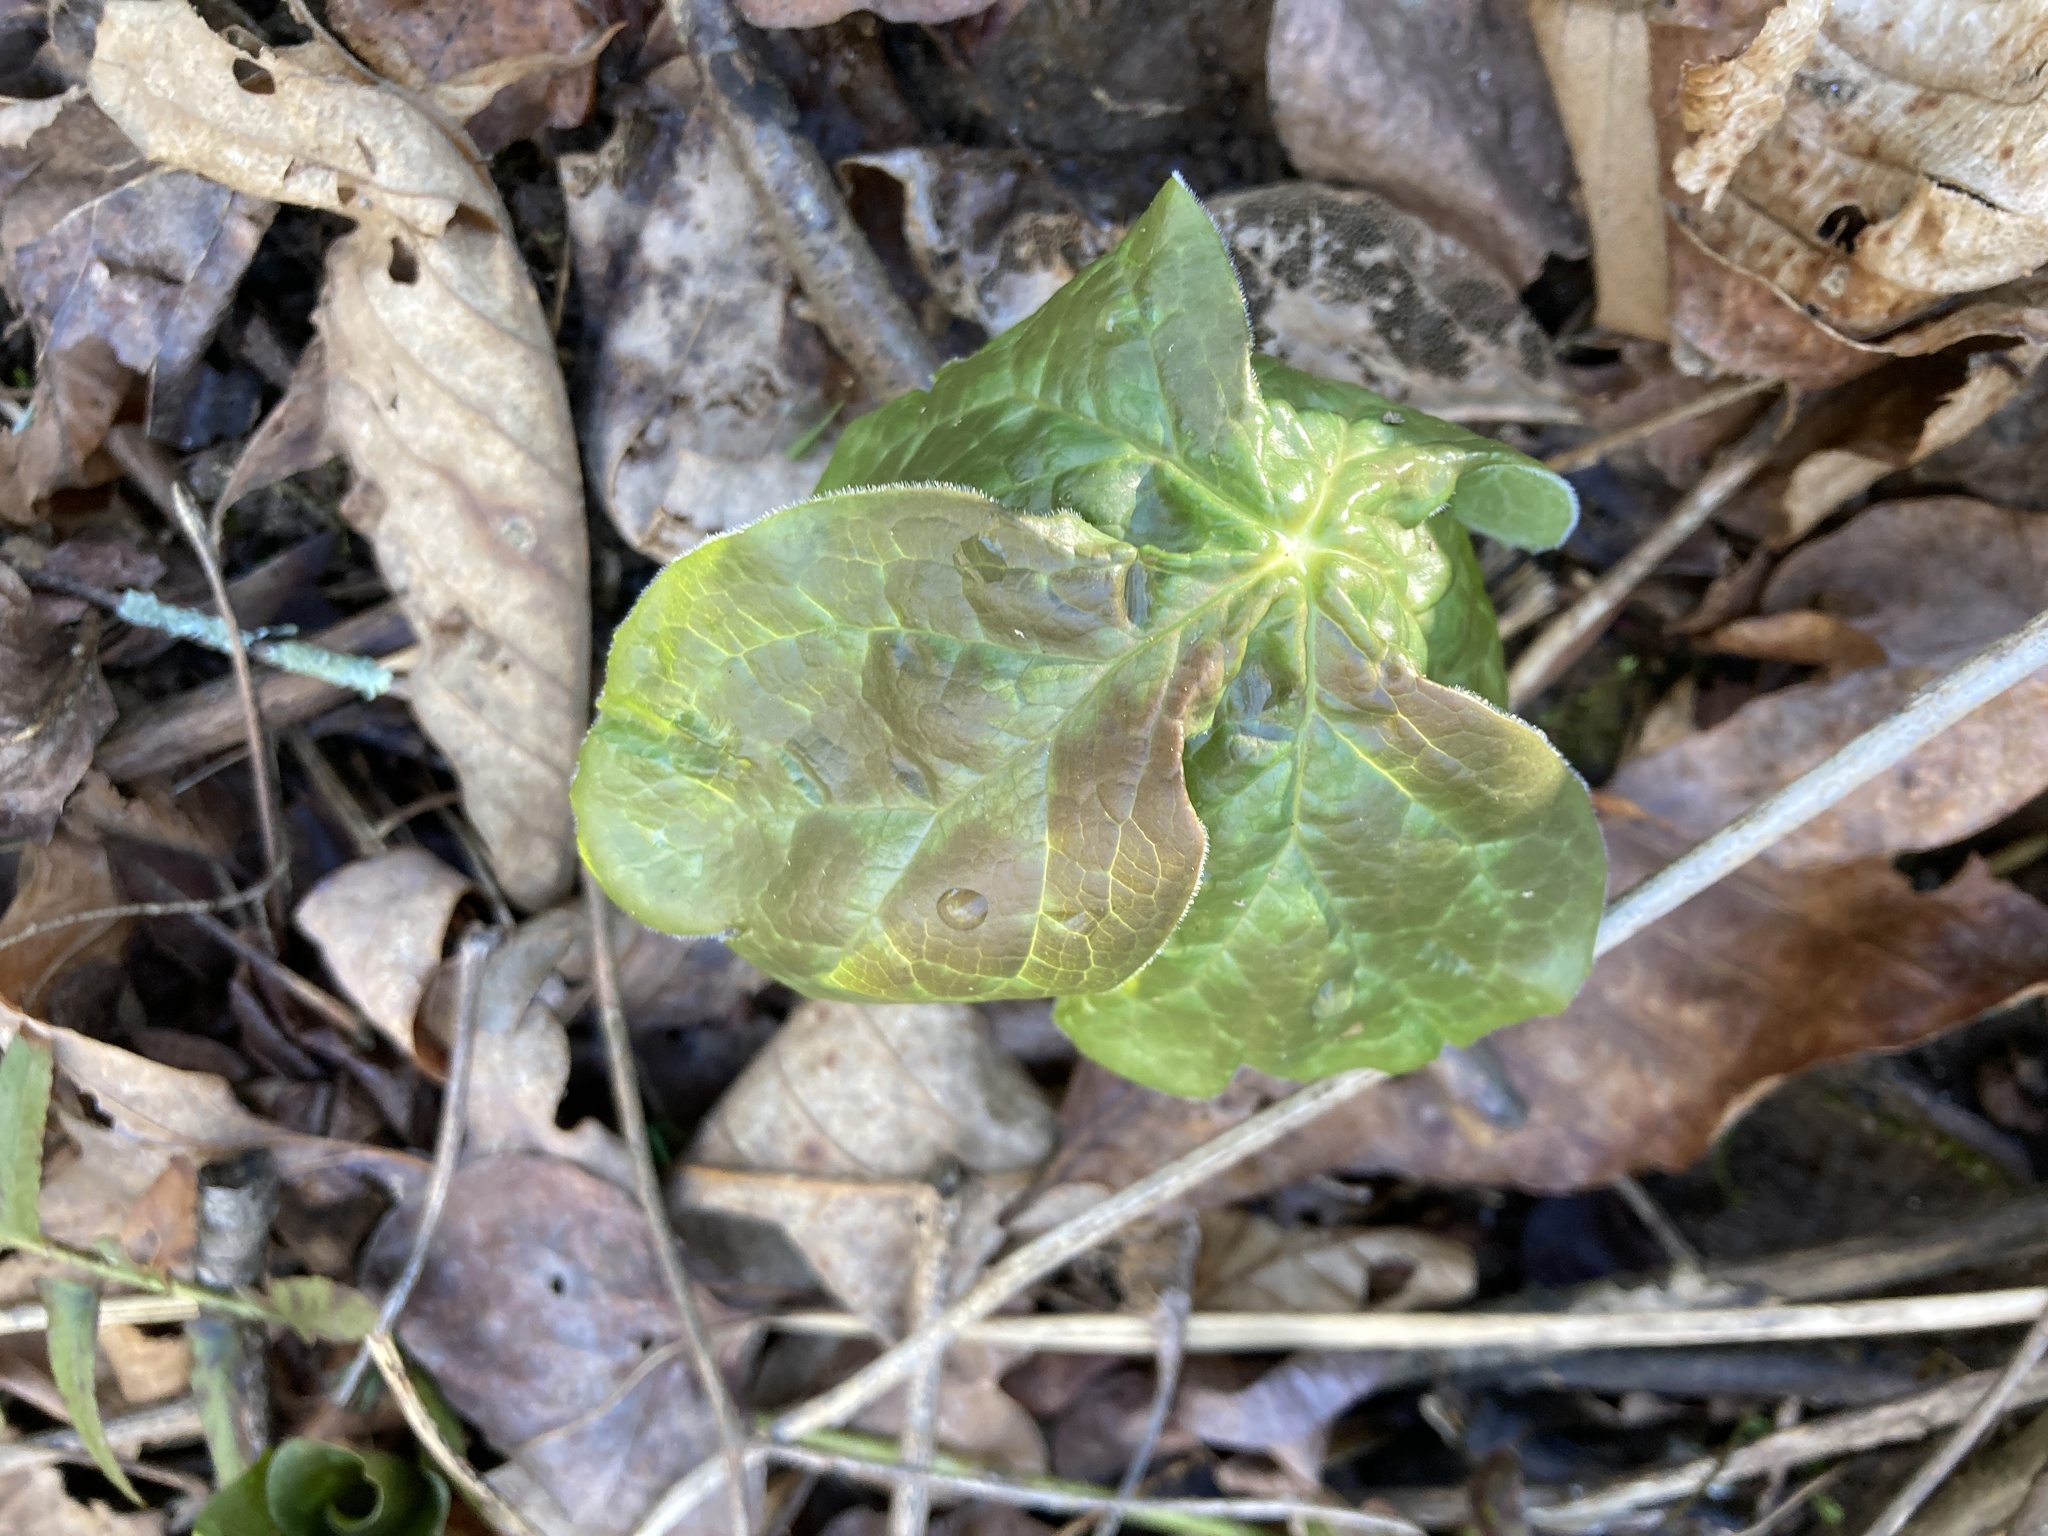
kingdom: Plantae
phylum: Tracheophyta
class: Magnoliopsida
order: Ranunculales
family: Berberidaceae
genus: Podophyllum
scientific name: Podophyllum peltatum
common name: Wild mandrake
